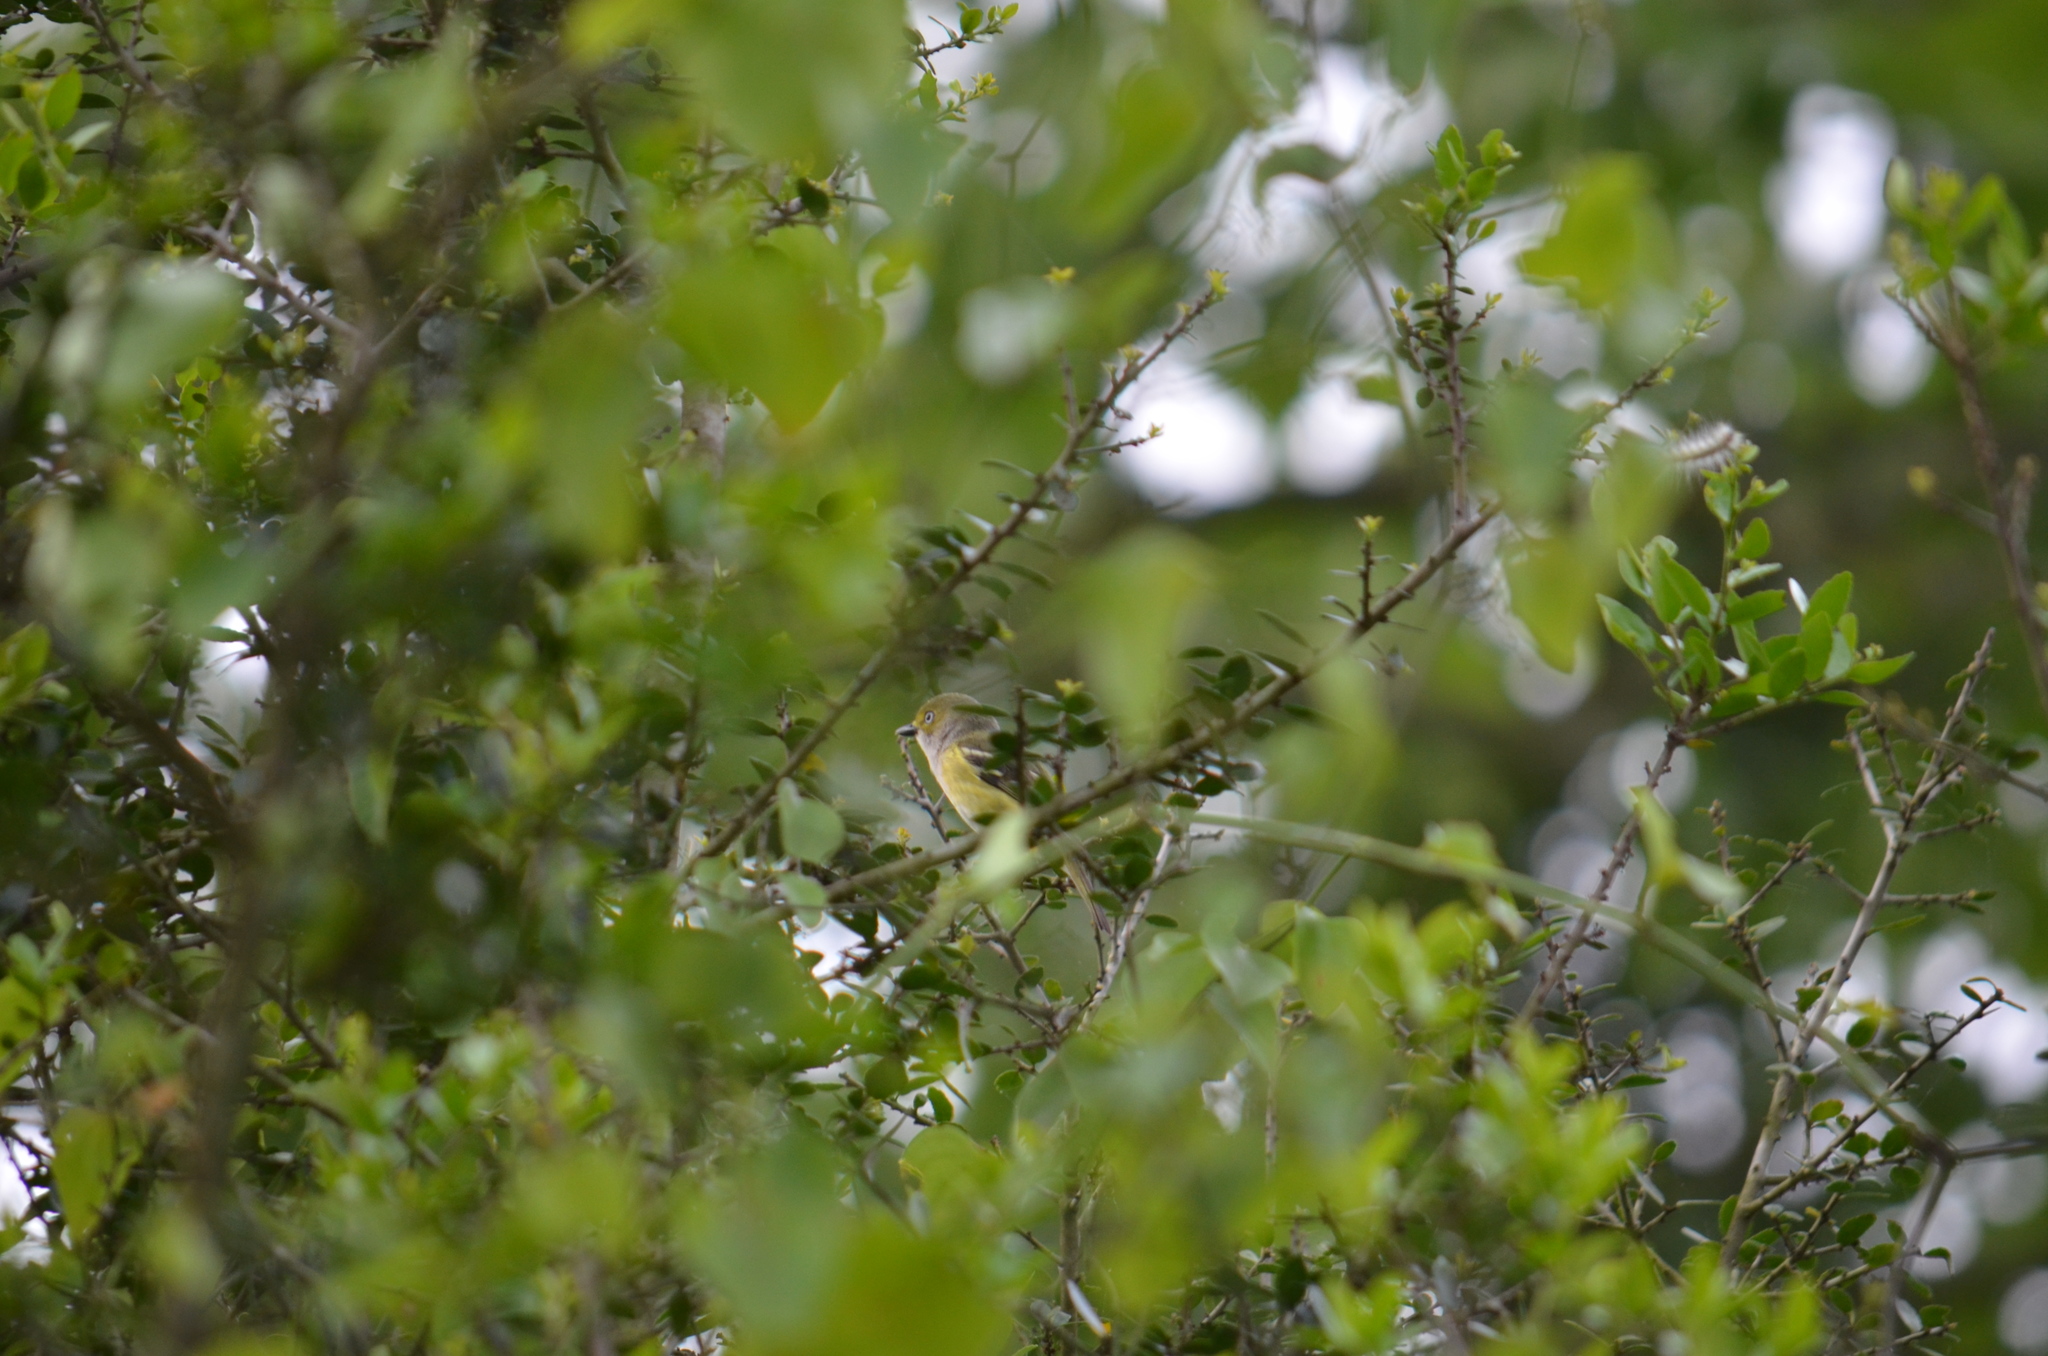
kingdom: Animalia
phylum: Chordata
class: Aves
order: Passeriformes
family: Vireonidae
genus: Vireo
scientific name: Vireo griseus
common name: White-eyed vireo
